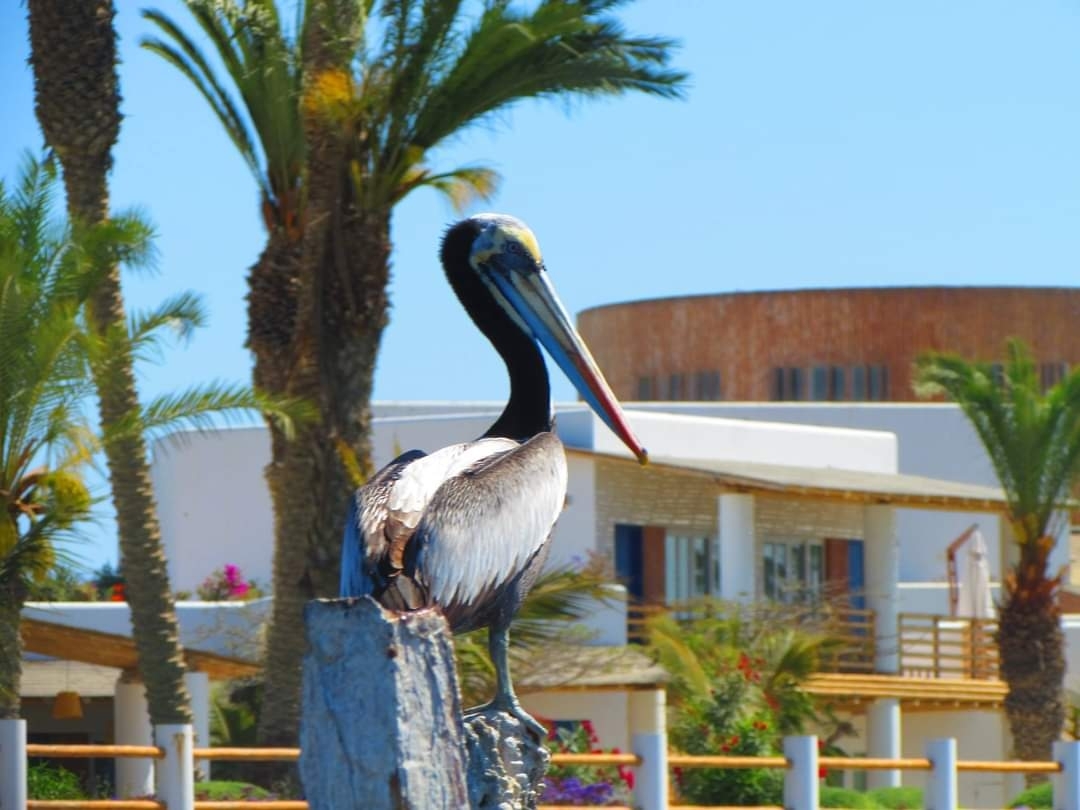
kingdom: Animalia
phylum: Chordata
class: Aves
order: Pelecaniformes
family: Pelecanidae
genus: Pelecanus
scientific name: Pelecanus thagus
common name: Peruvian pelican
